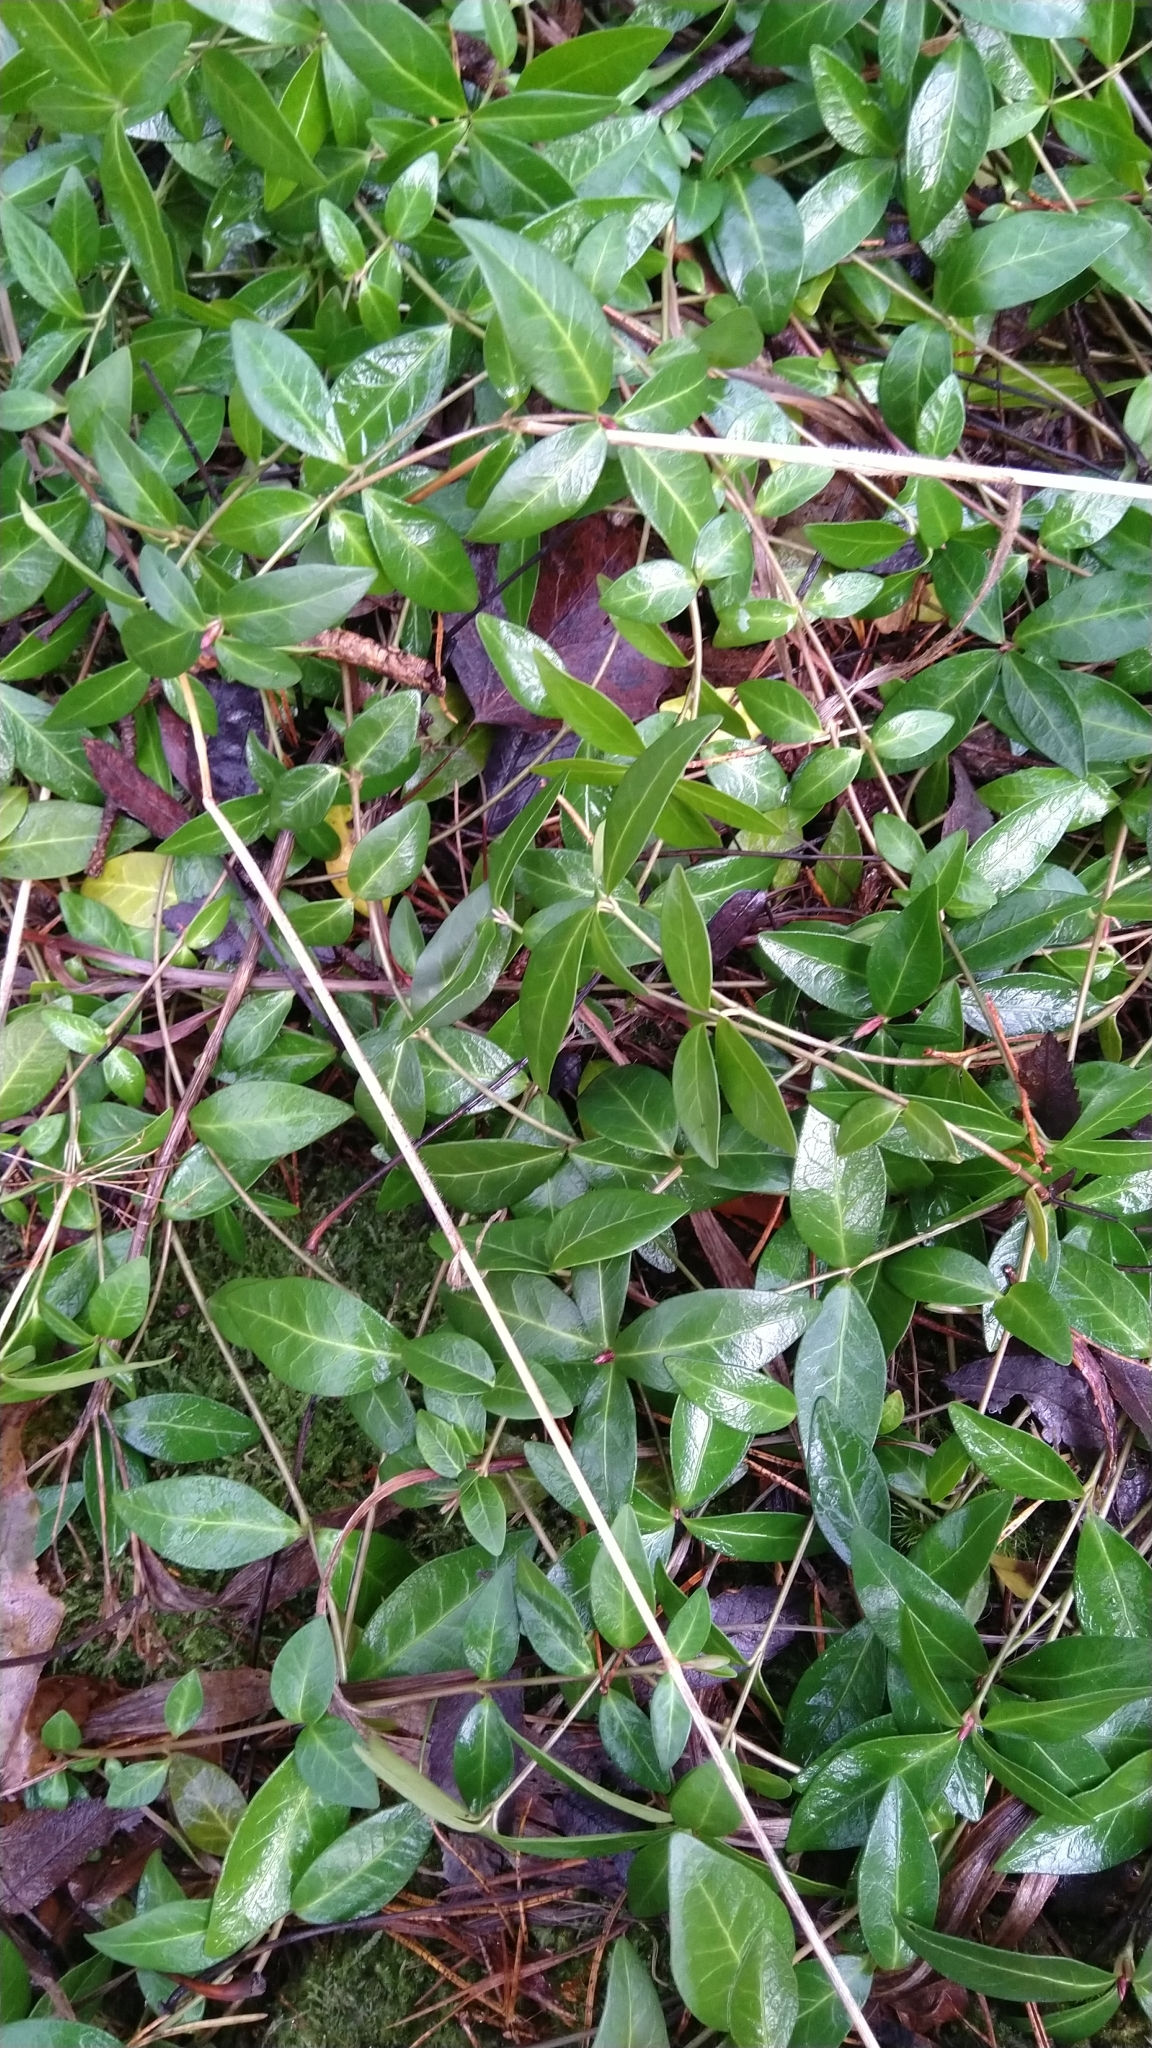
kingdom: Plantae
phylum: Tracheophyta
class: Magnoliopsida
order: Gentianales
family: Apocynaceae
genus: Vinca
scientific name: Vinca minor
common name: Lesser periwinkle
